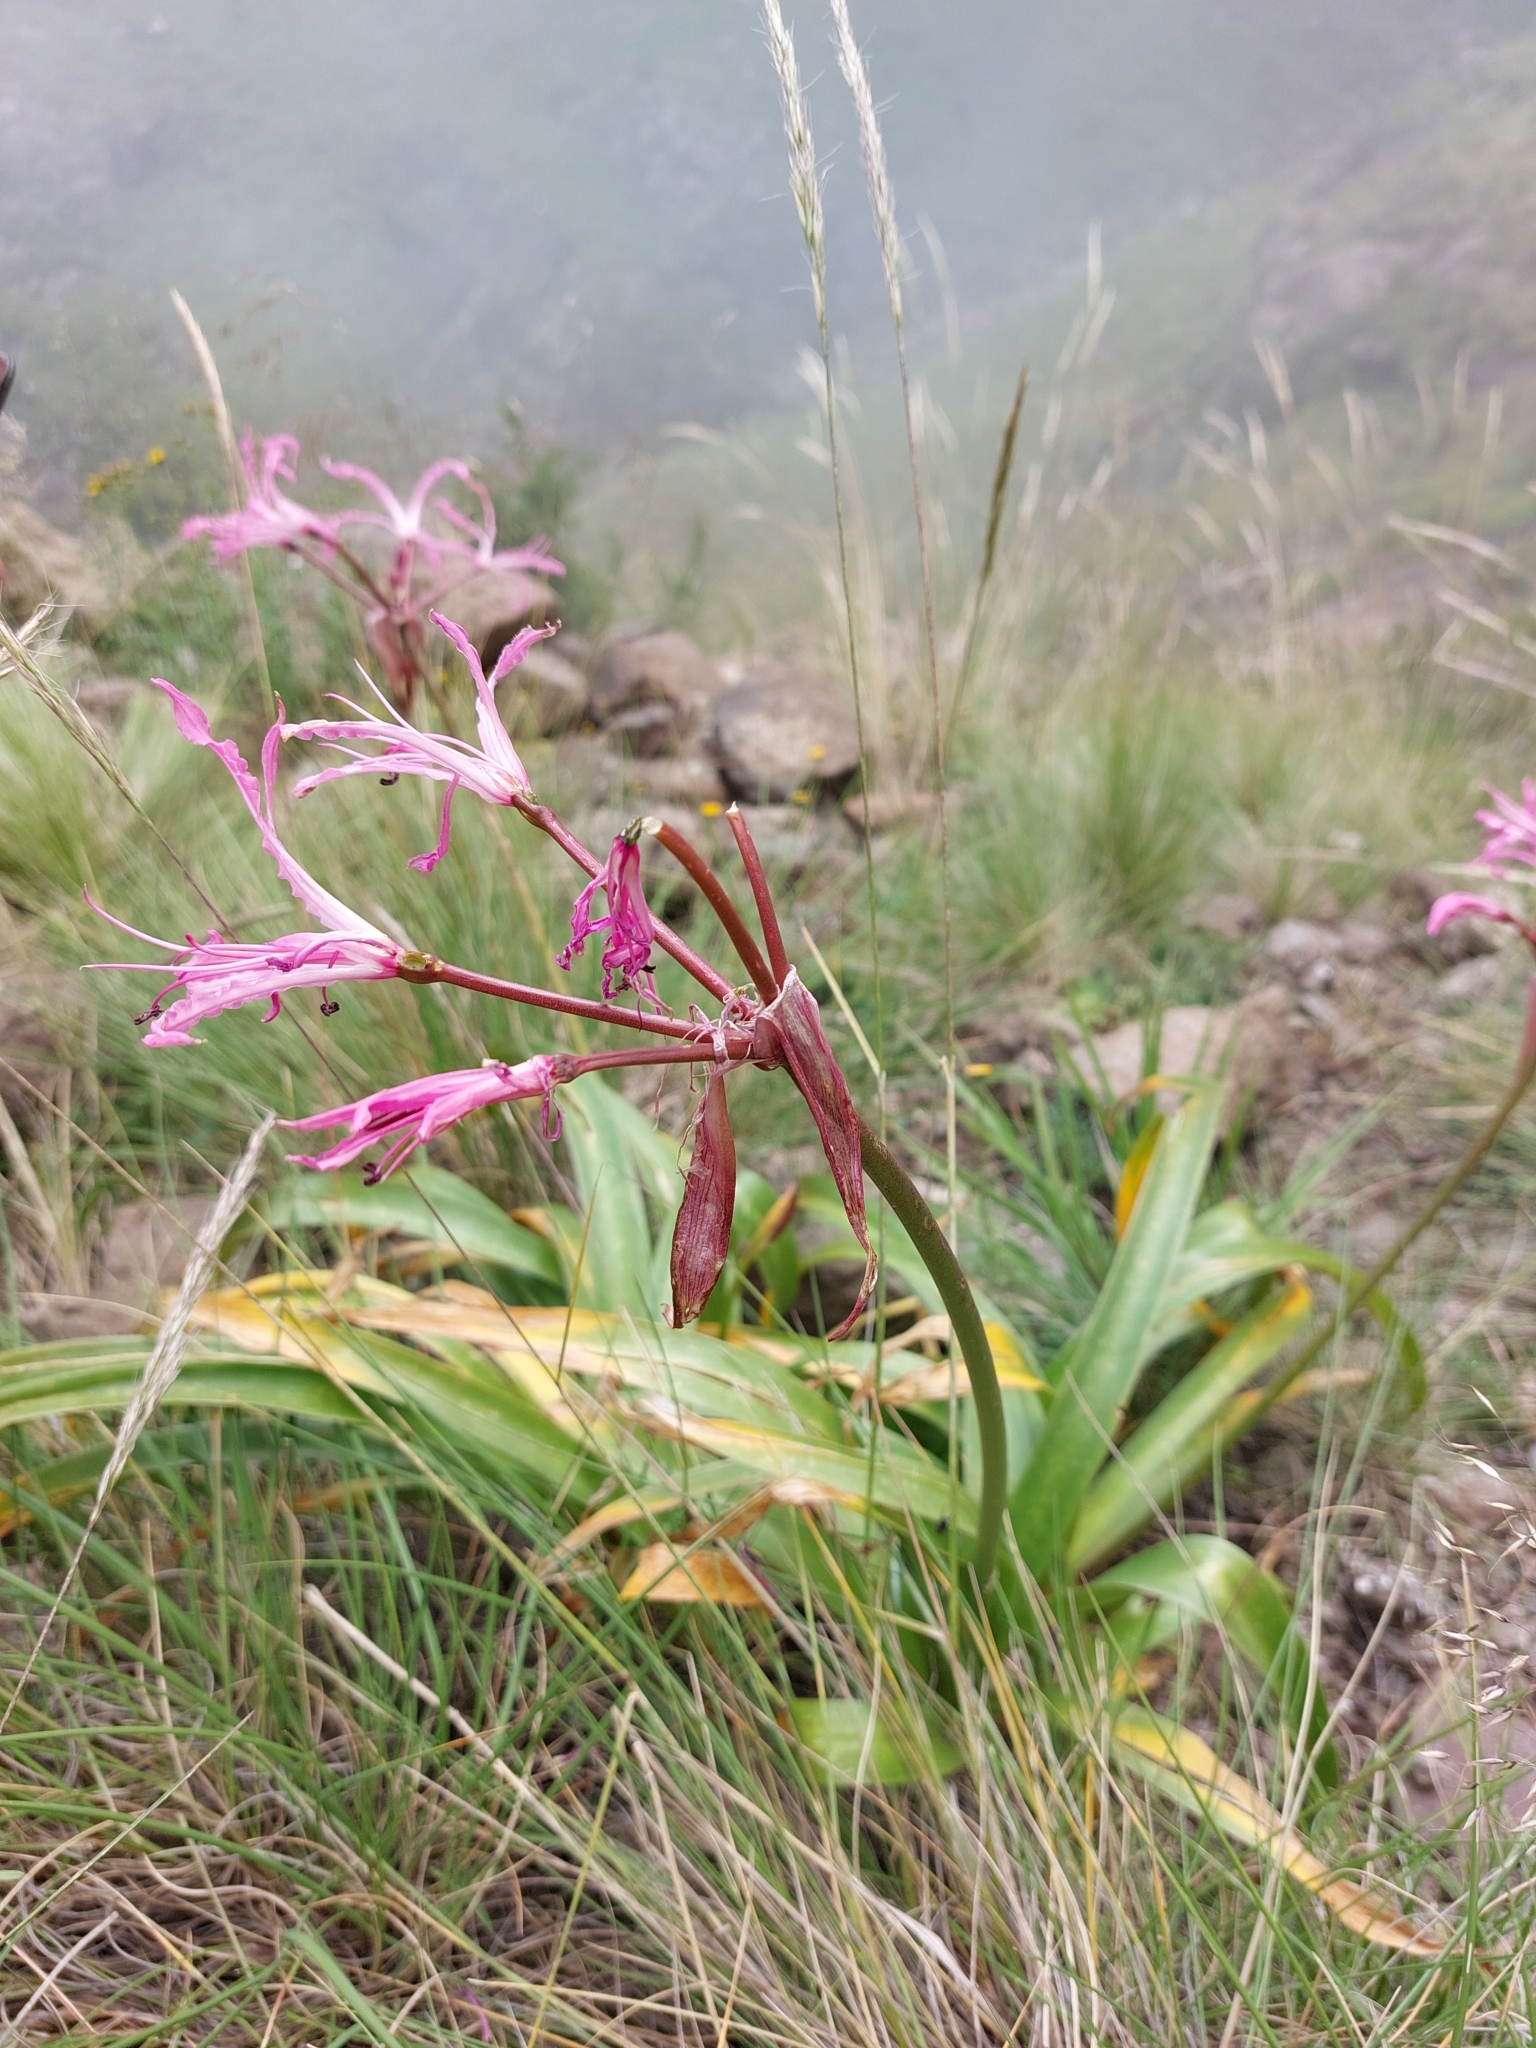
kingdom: Plantae
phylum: Tracheophyta
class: Liliopsida
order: Asparagales
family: Amaryllidaceae
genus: Nerine
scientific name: Nerine bowdenii
